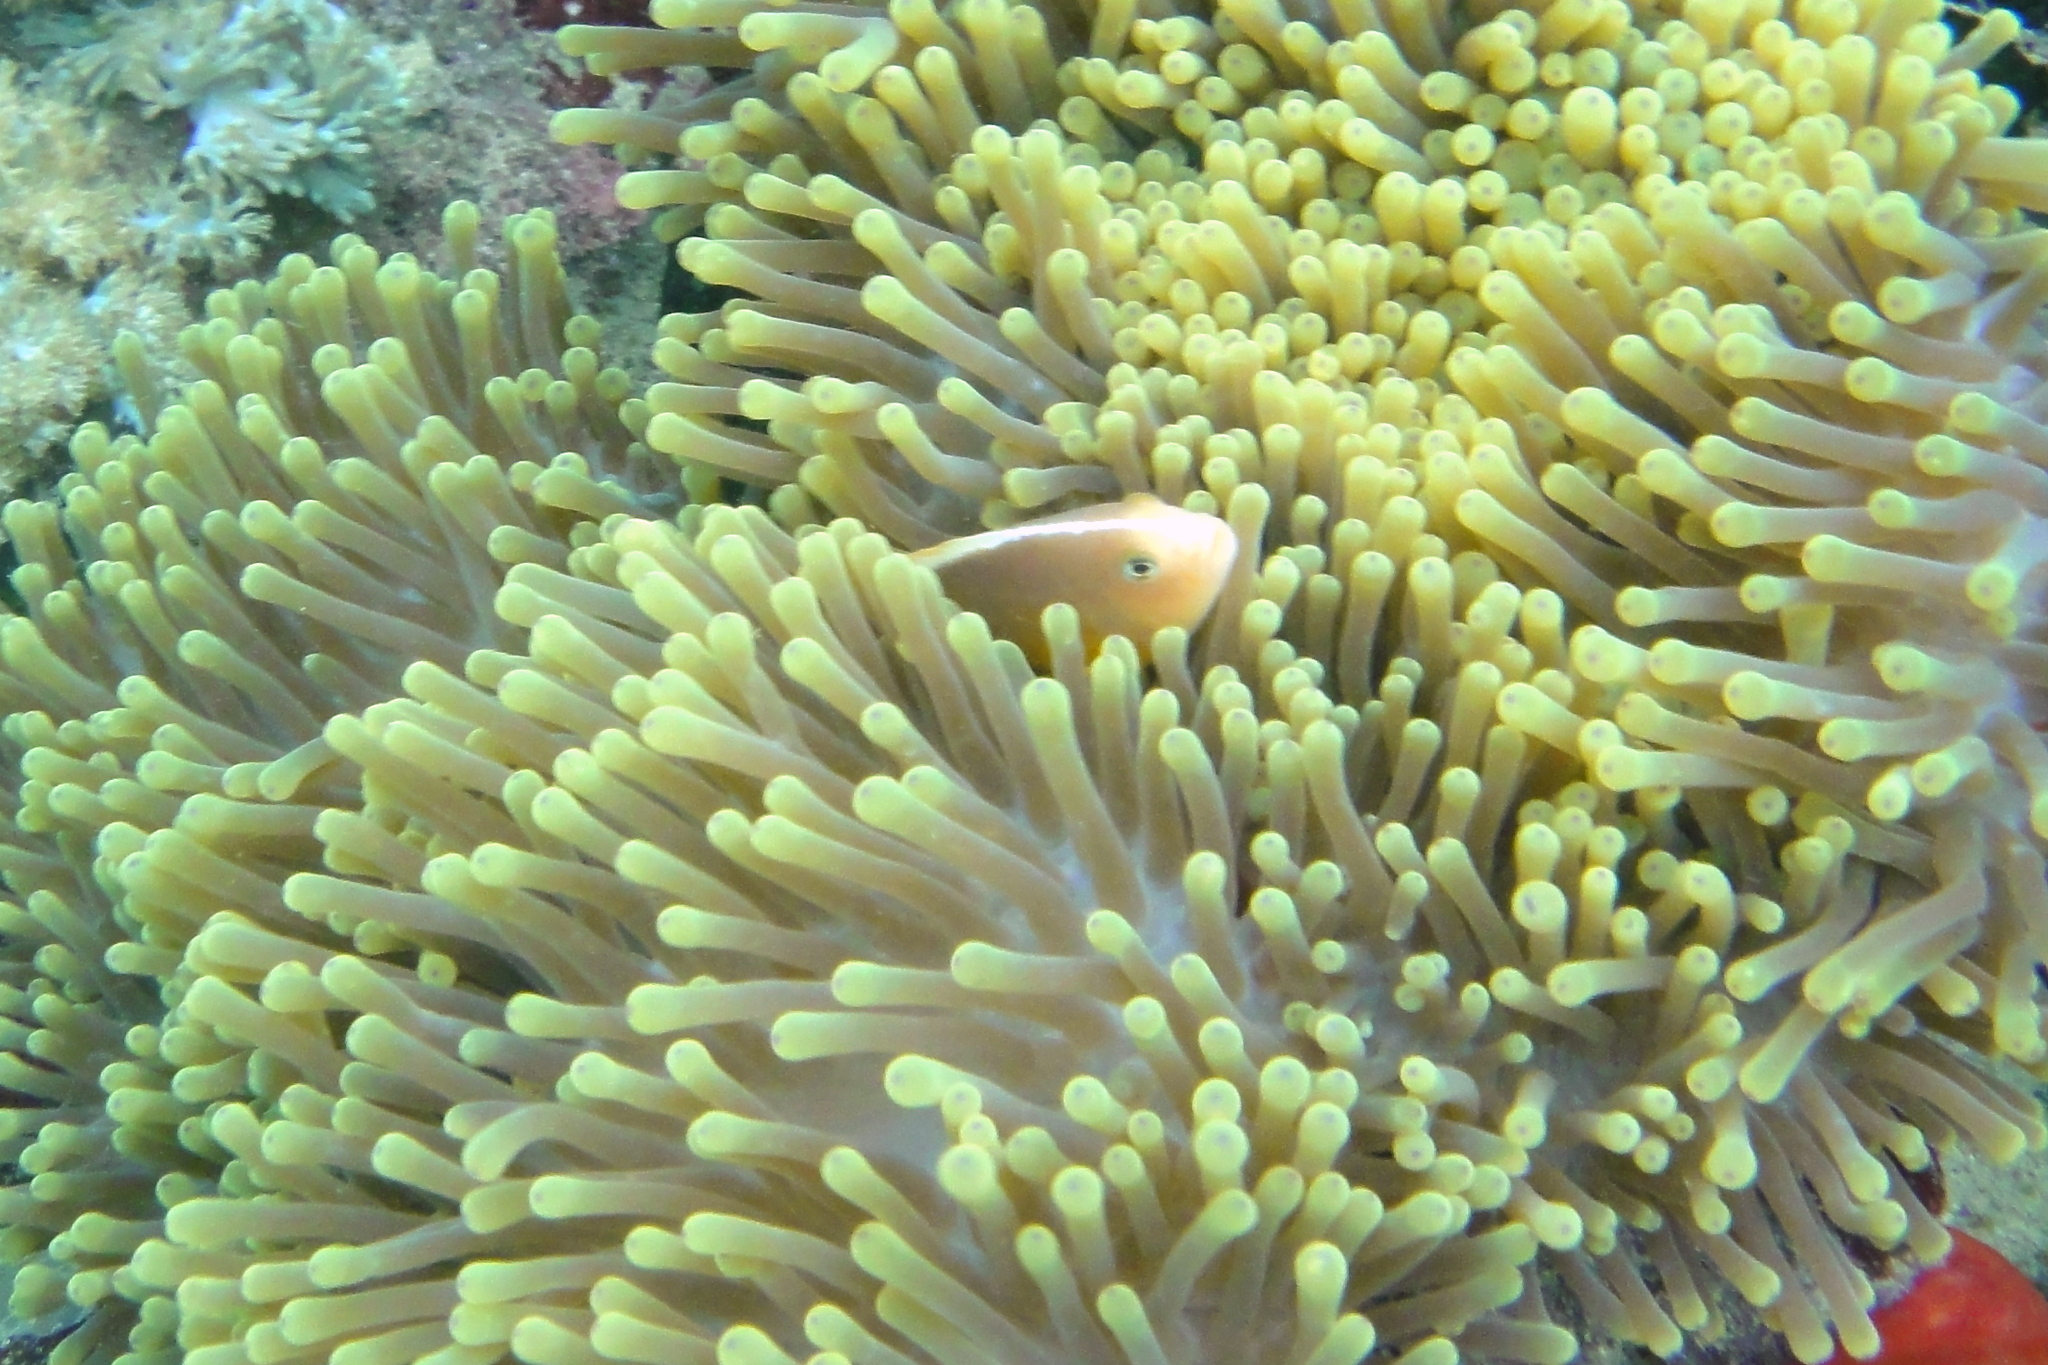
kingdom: Animalia
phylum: Chordata
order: Perciformes
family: Pomacentridae
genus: Amphiprion
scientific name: Amphiprion akallopisos
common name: Skunk clownfish
